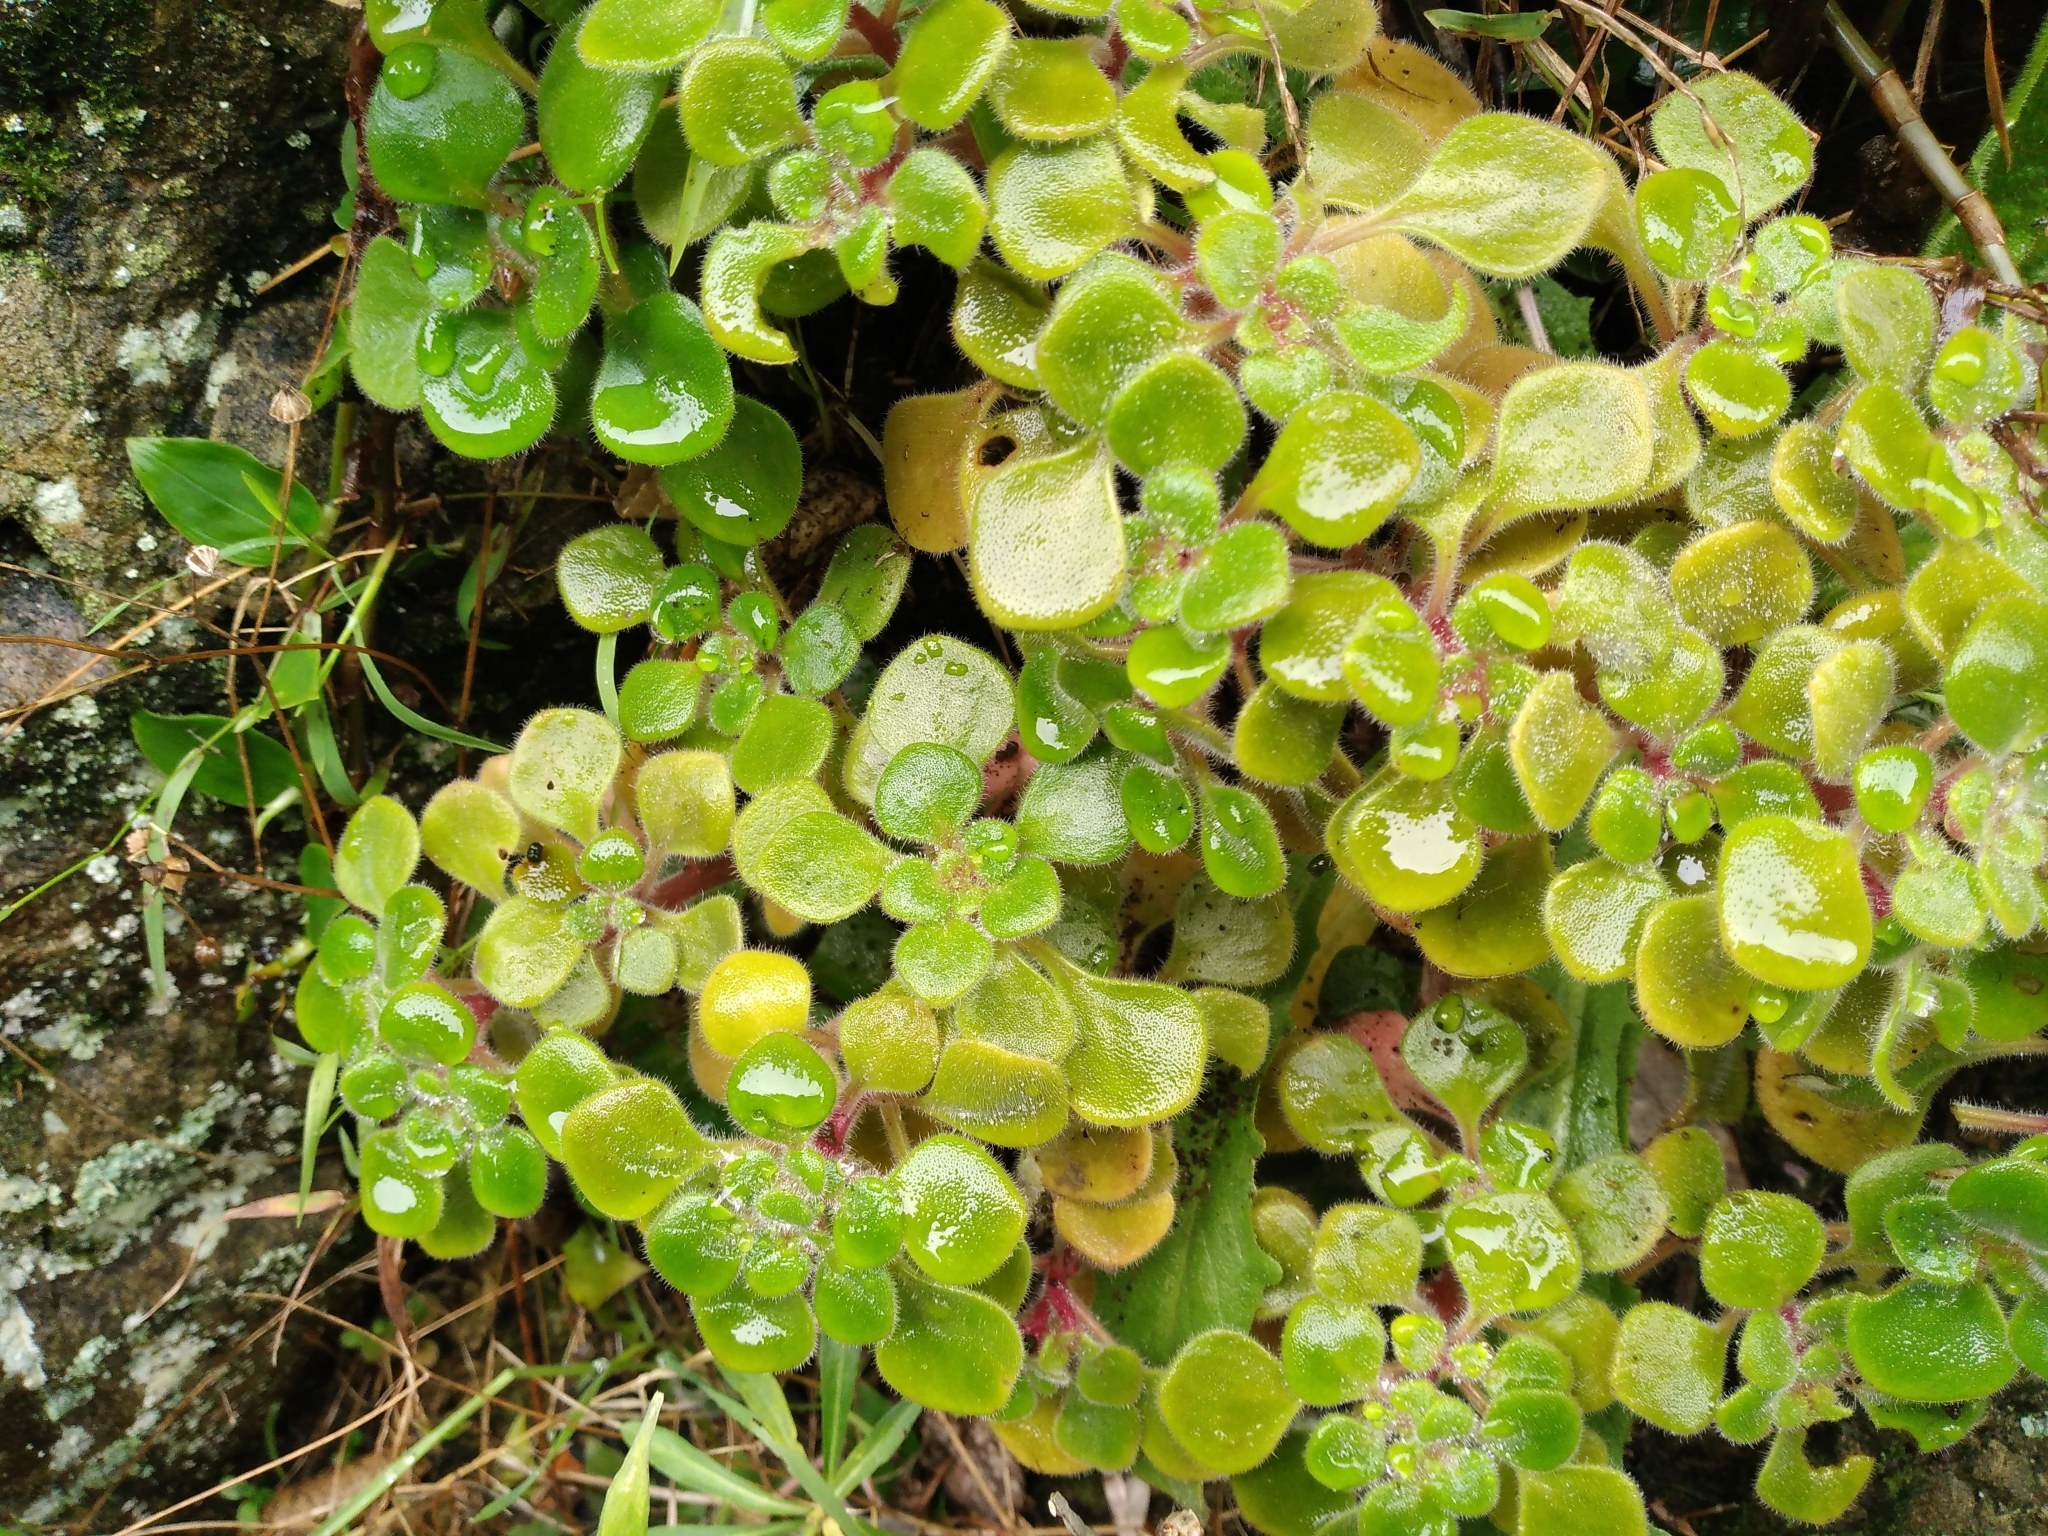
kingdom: Plantae
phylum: Tracheophyta
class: Magnoliopsida
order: Saxifragales
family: Crassulaceae
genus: Aichryson
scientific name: Aichryson laxum
